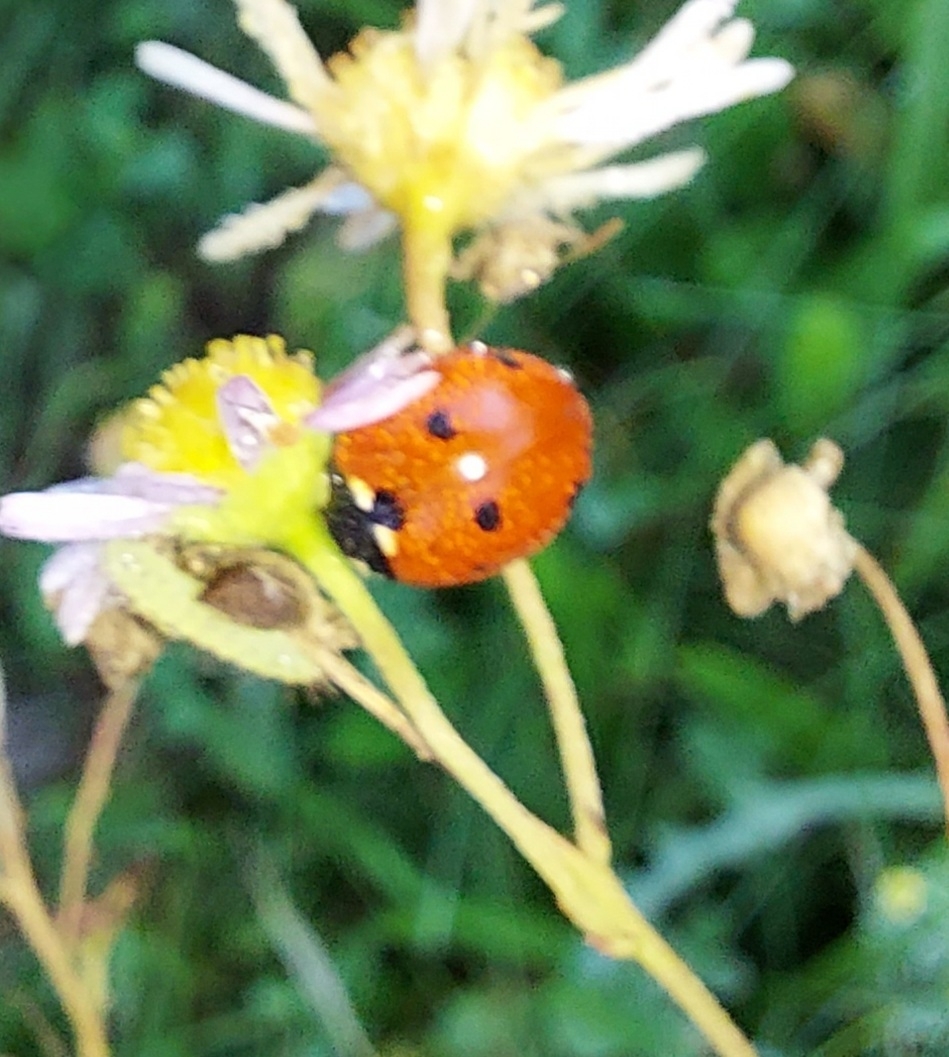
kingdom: Animalia
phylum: Arthropoda
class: Insecta
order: Coleoptera
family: Coccinellidae
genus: Coccinella
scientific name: Coccinella septempunctata
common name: Sevenspotted lady beetle
